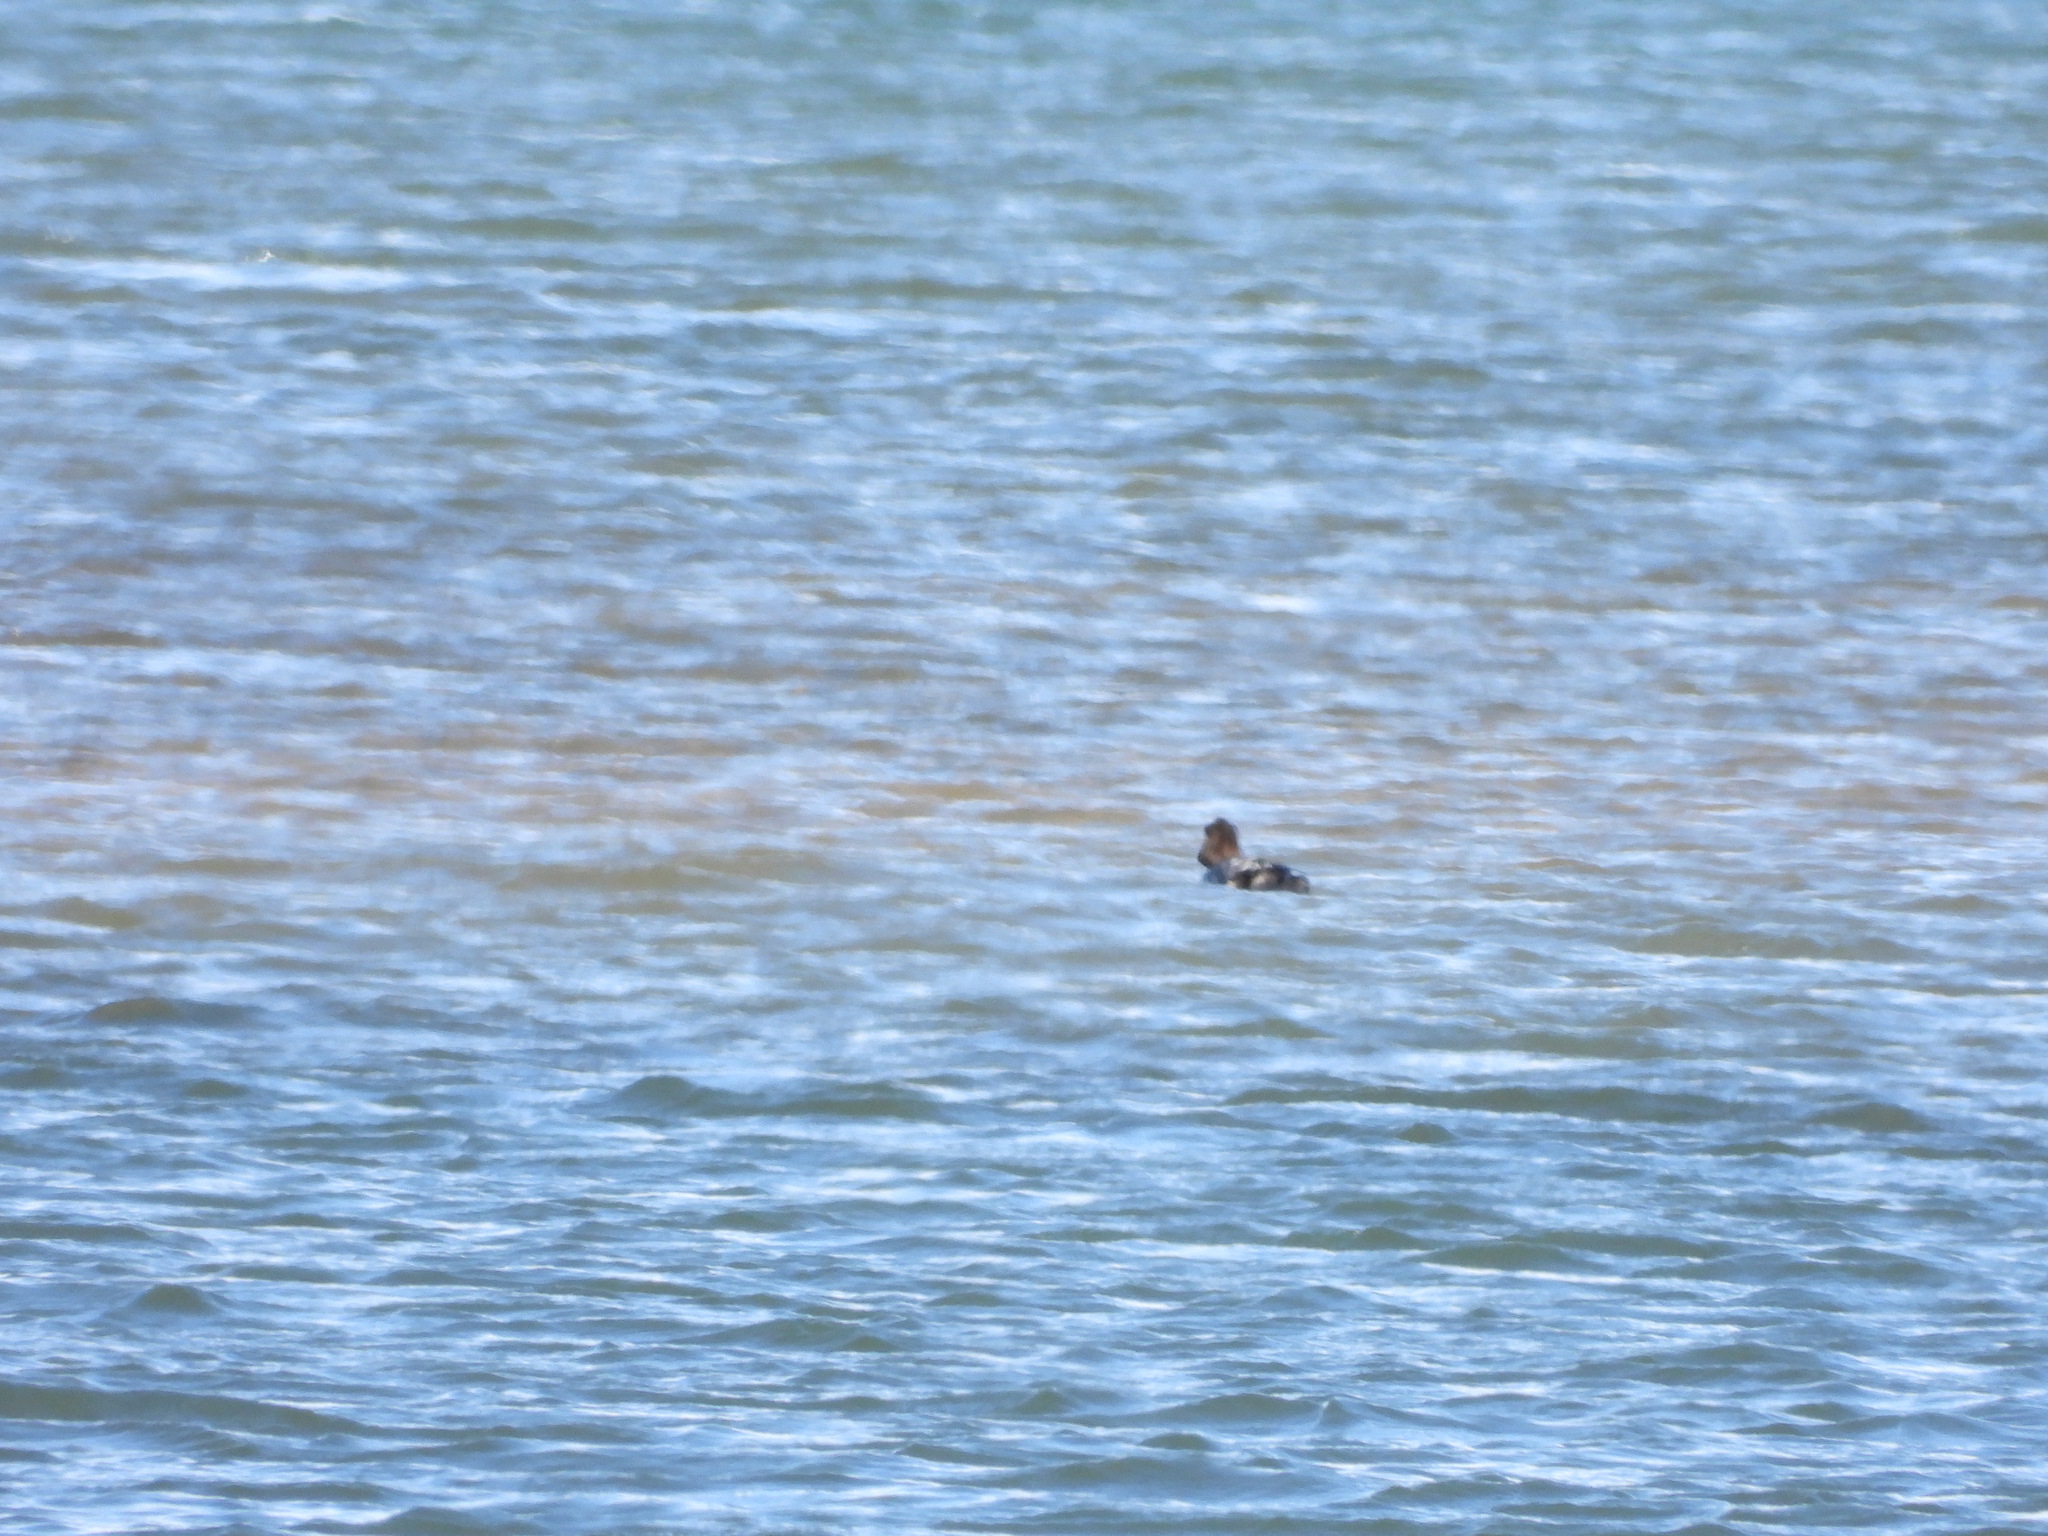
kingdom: Animalia
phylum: Chordata
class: Aves
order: Anseriformes
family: Anatidae
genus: Bucephala
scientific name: Bucephala clangula
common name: Common goldeneye
